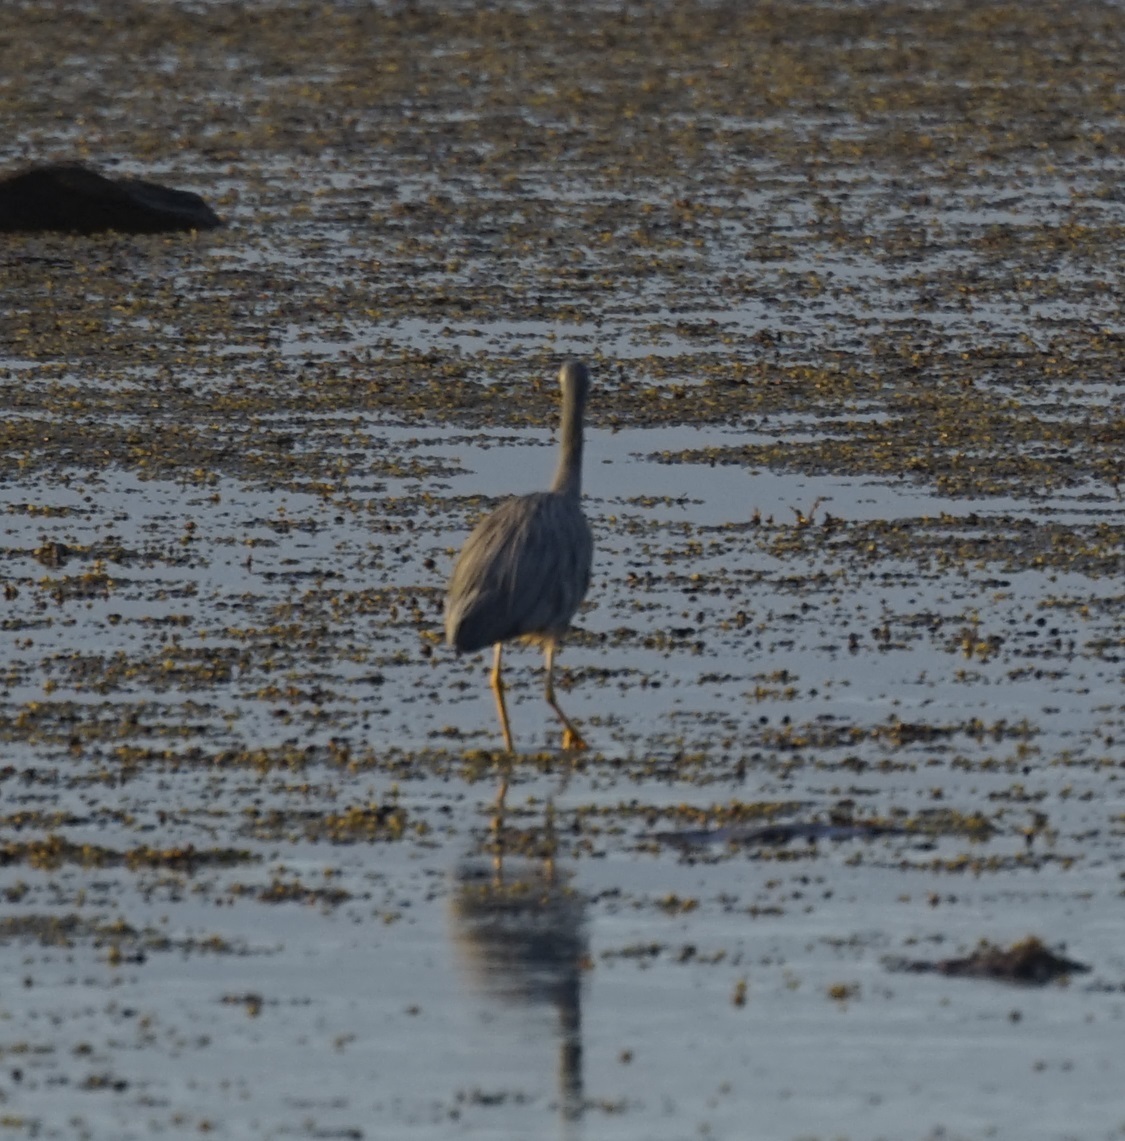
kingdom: Animalia
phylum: Chordata
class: Aves
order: Pelecaniformes
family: Ardeidae
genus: Egretta
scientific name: Egretta novaehollandiae
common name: White-faced heron
